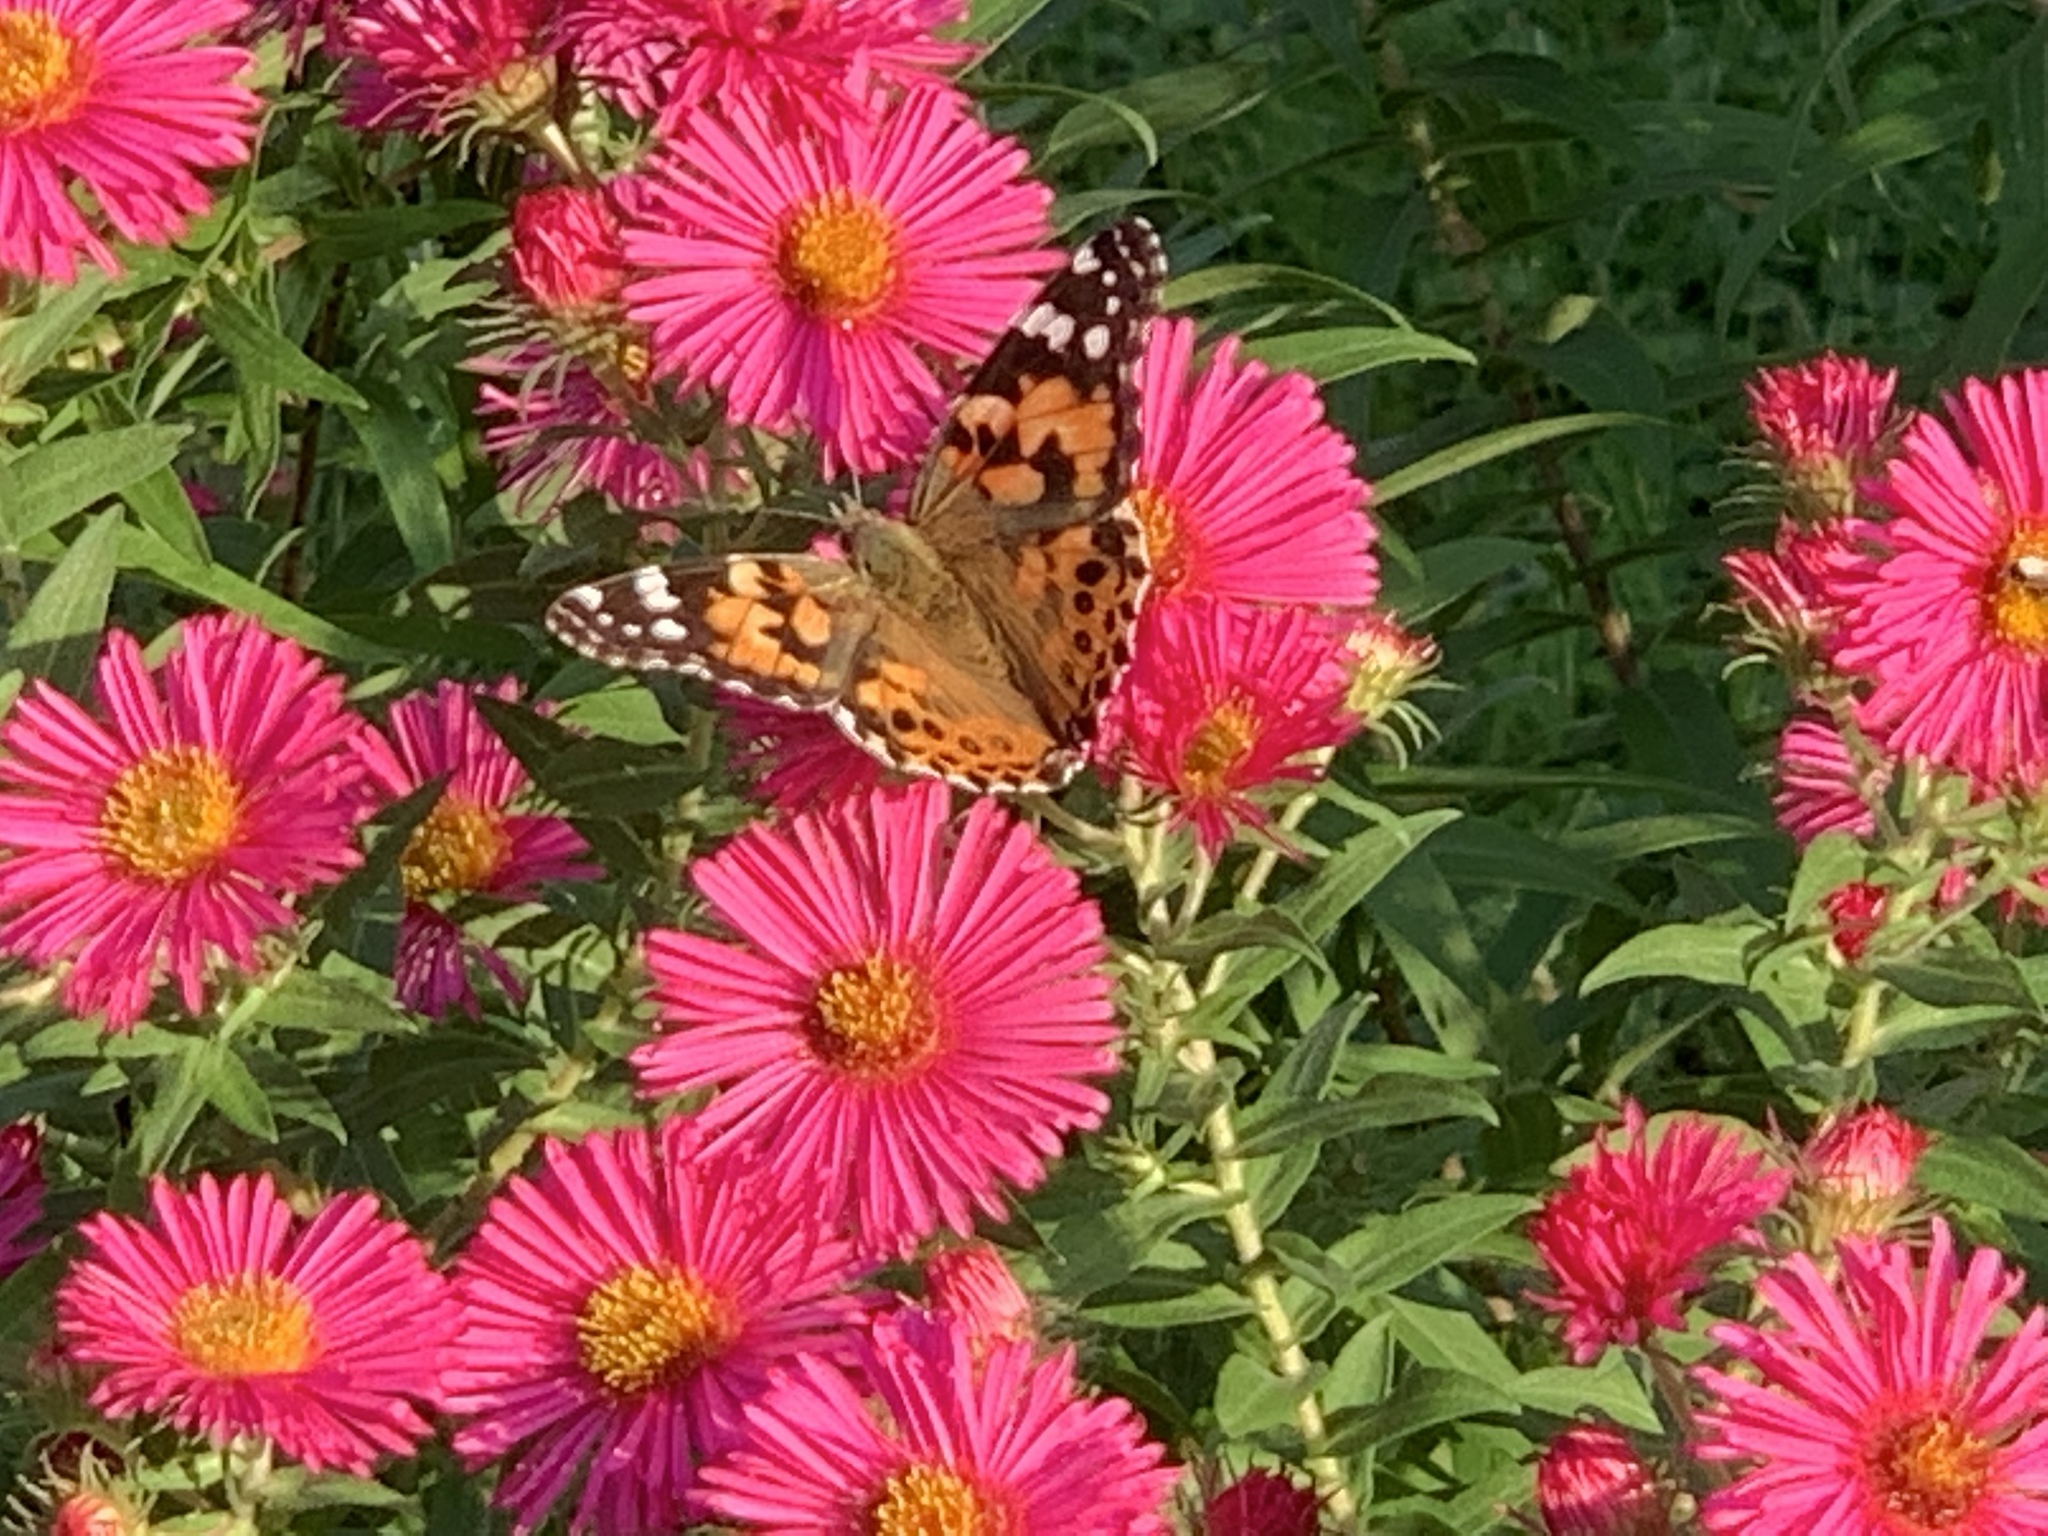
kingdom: Animalia
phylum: Arthropoda
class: Insecta
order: Lepidoptera
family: Nymphalidae
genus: Vanessa
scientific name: Vanessa cardui
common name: Painted lady
